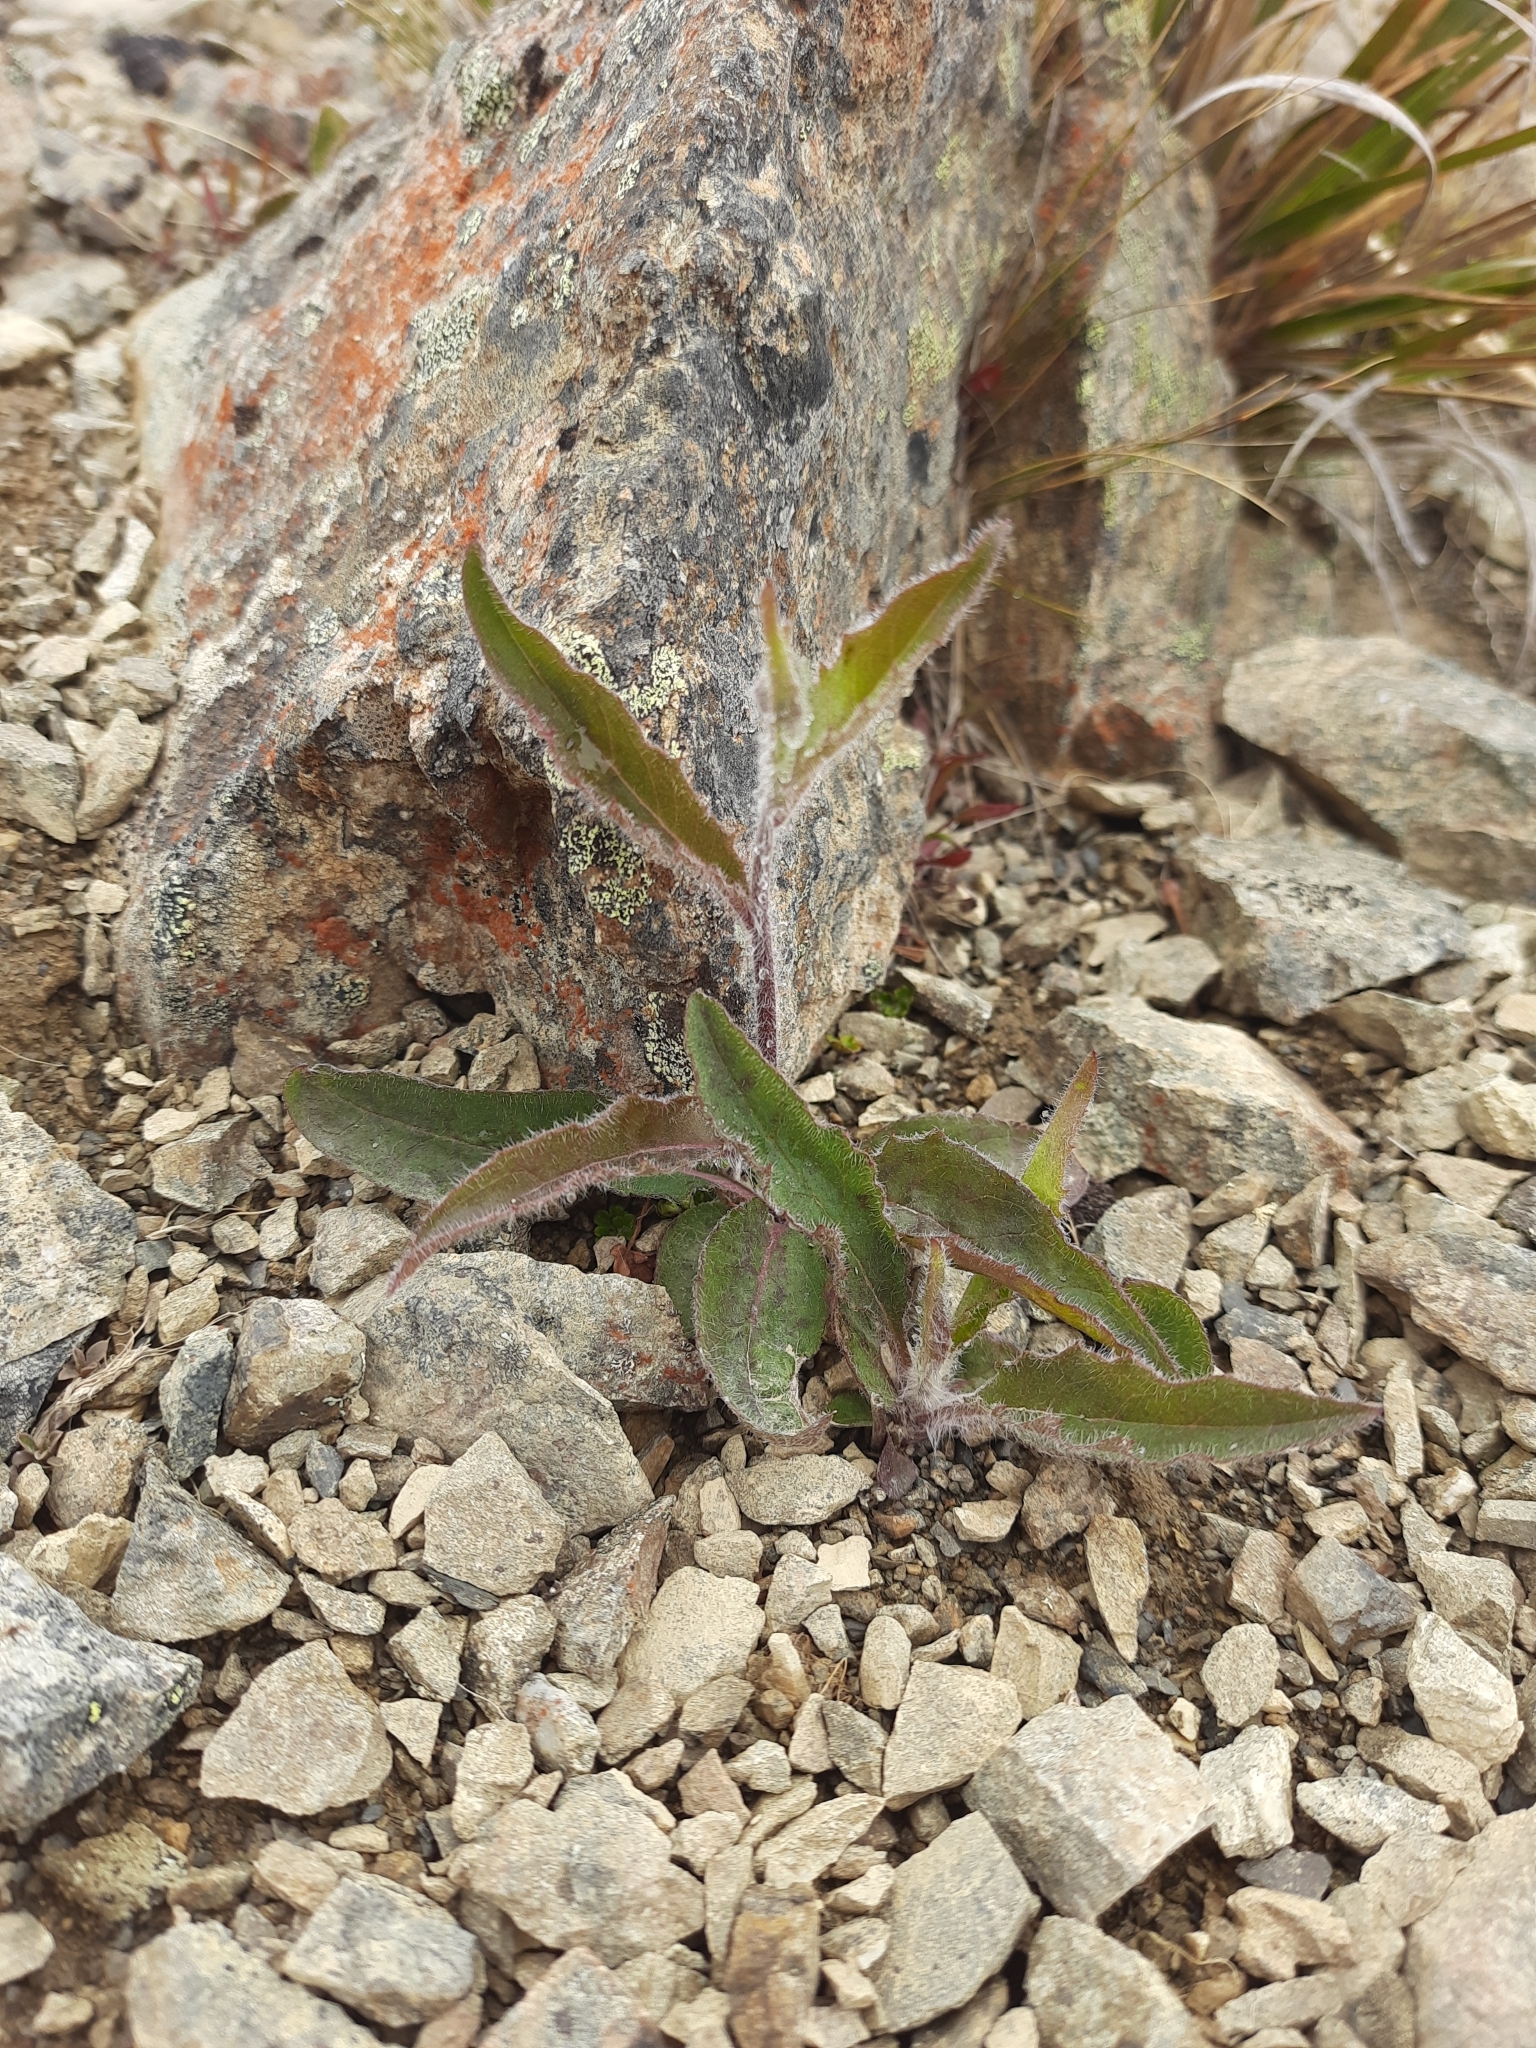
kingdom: Plantae
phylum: Tracheophyta
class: Magnoliopsida
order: Asterales
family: Asteraceae
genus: Hieracium
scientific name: Hieracium lepidulum
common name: Irregular-toothed hawkweed
